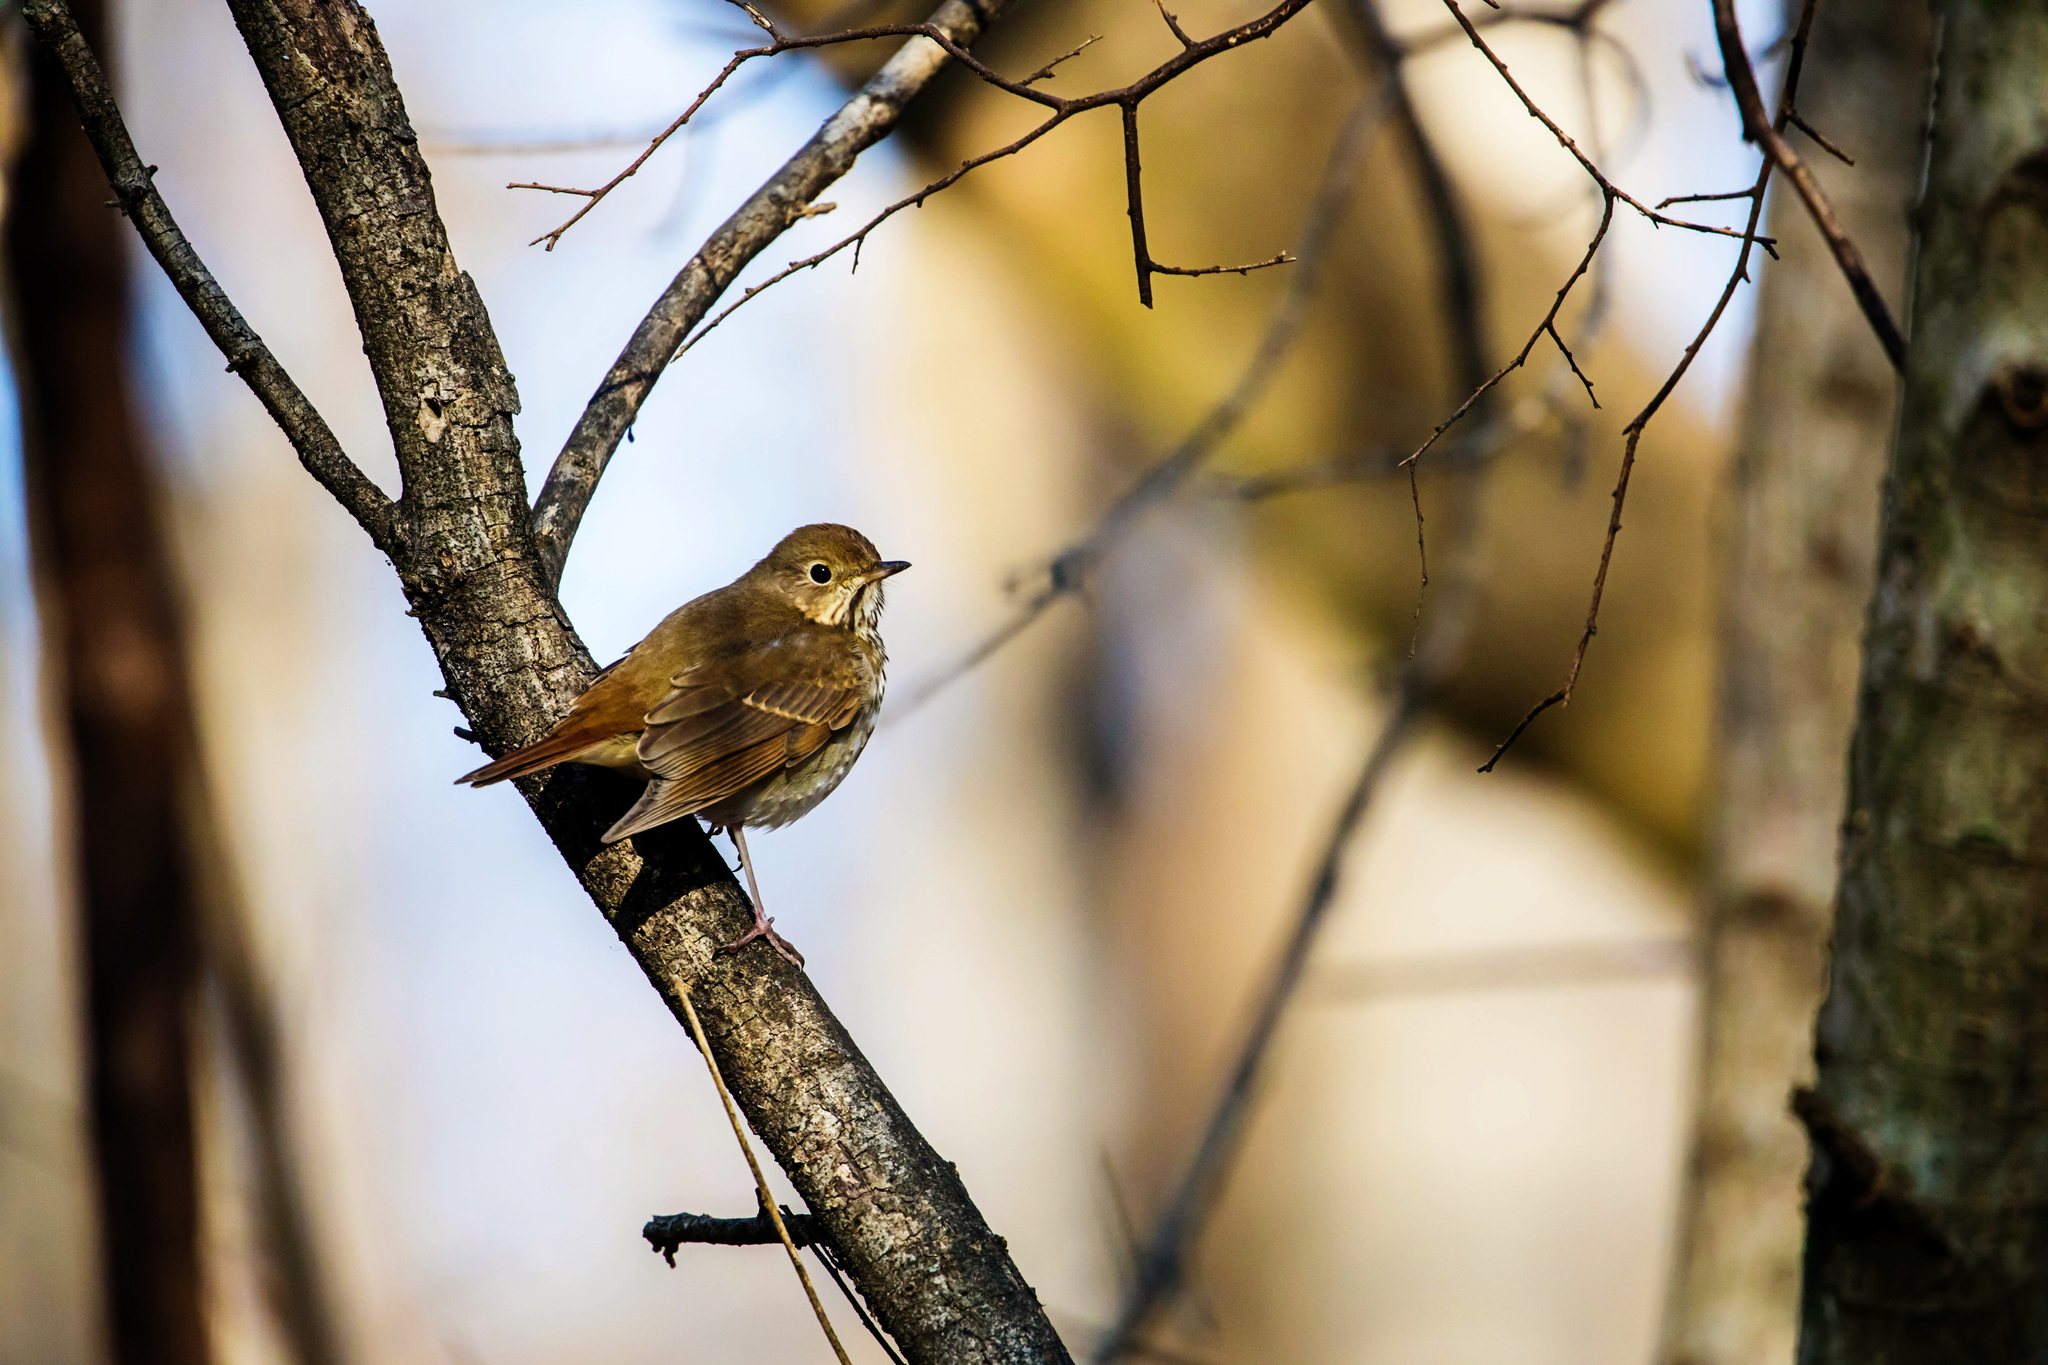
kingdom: Animalia
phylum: Chordata
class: Aves
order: Passeriformes
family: Turdidae
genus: Catharus
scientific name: Catharus guttatus
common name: Hermit thrush
